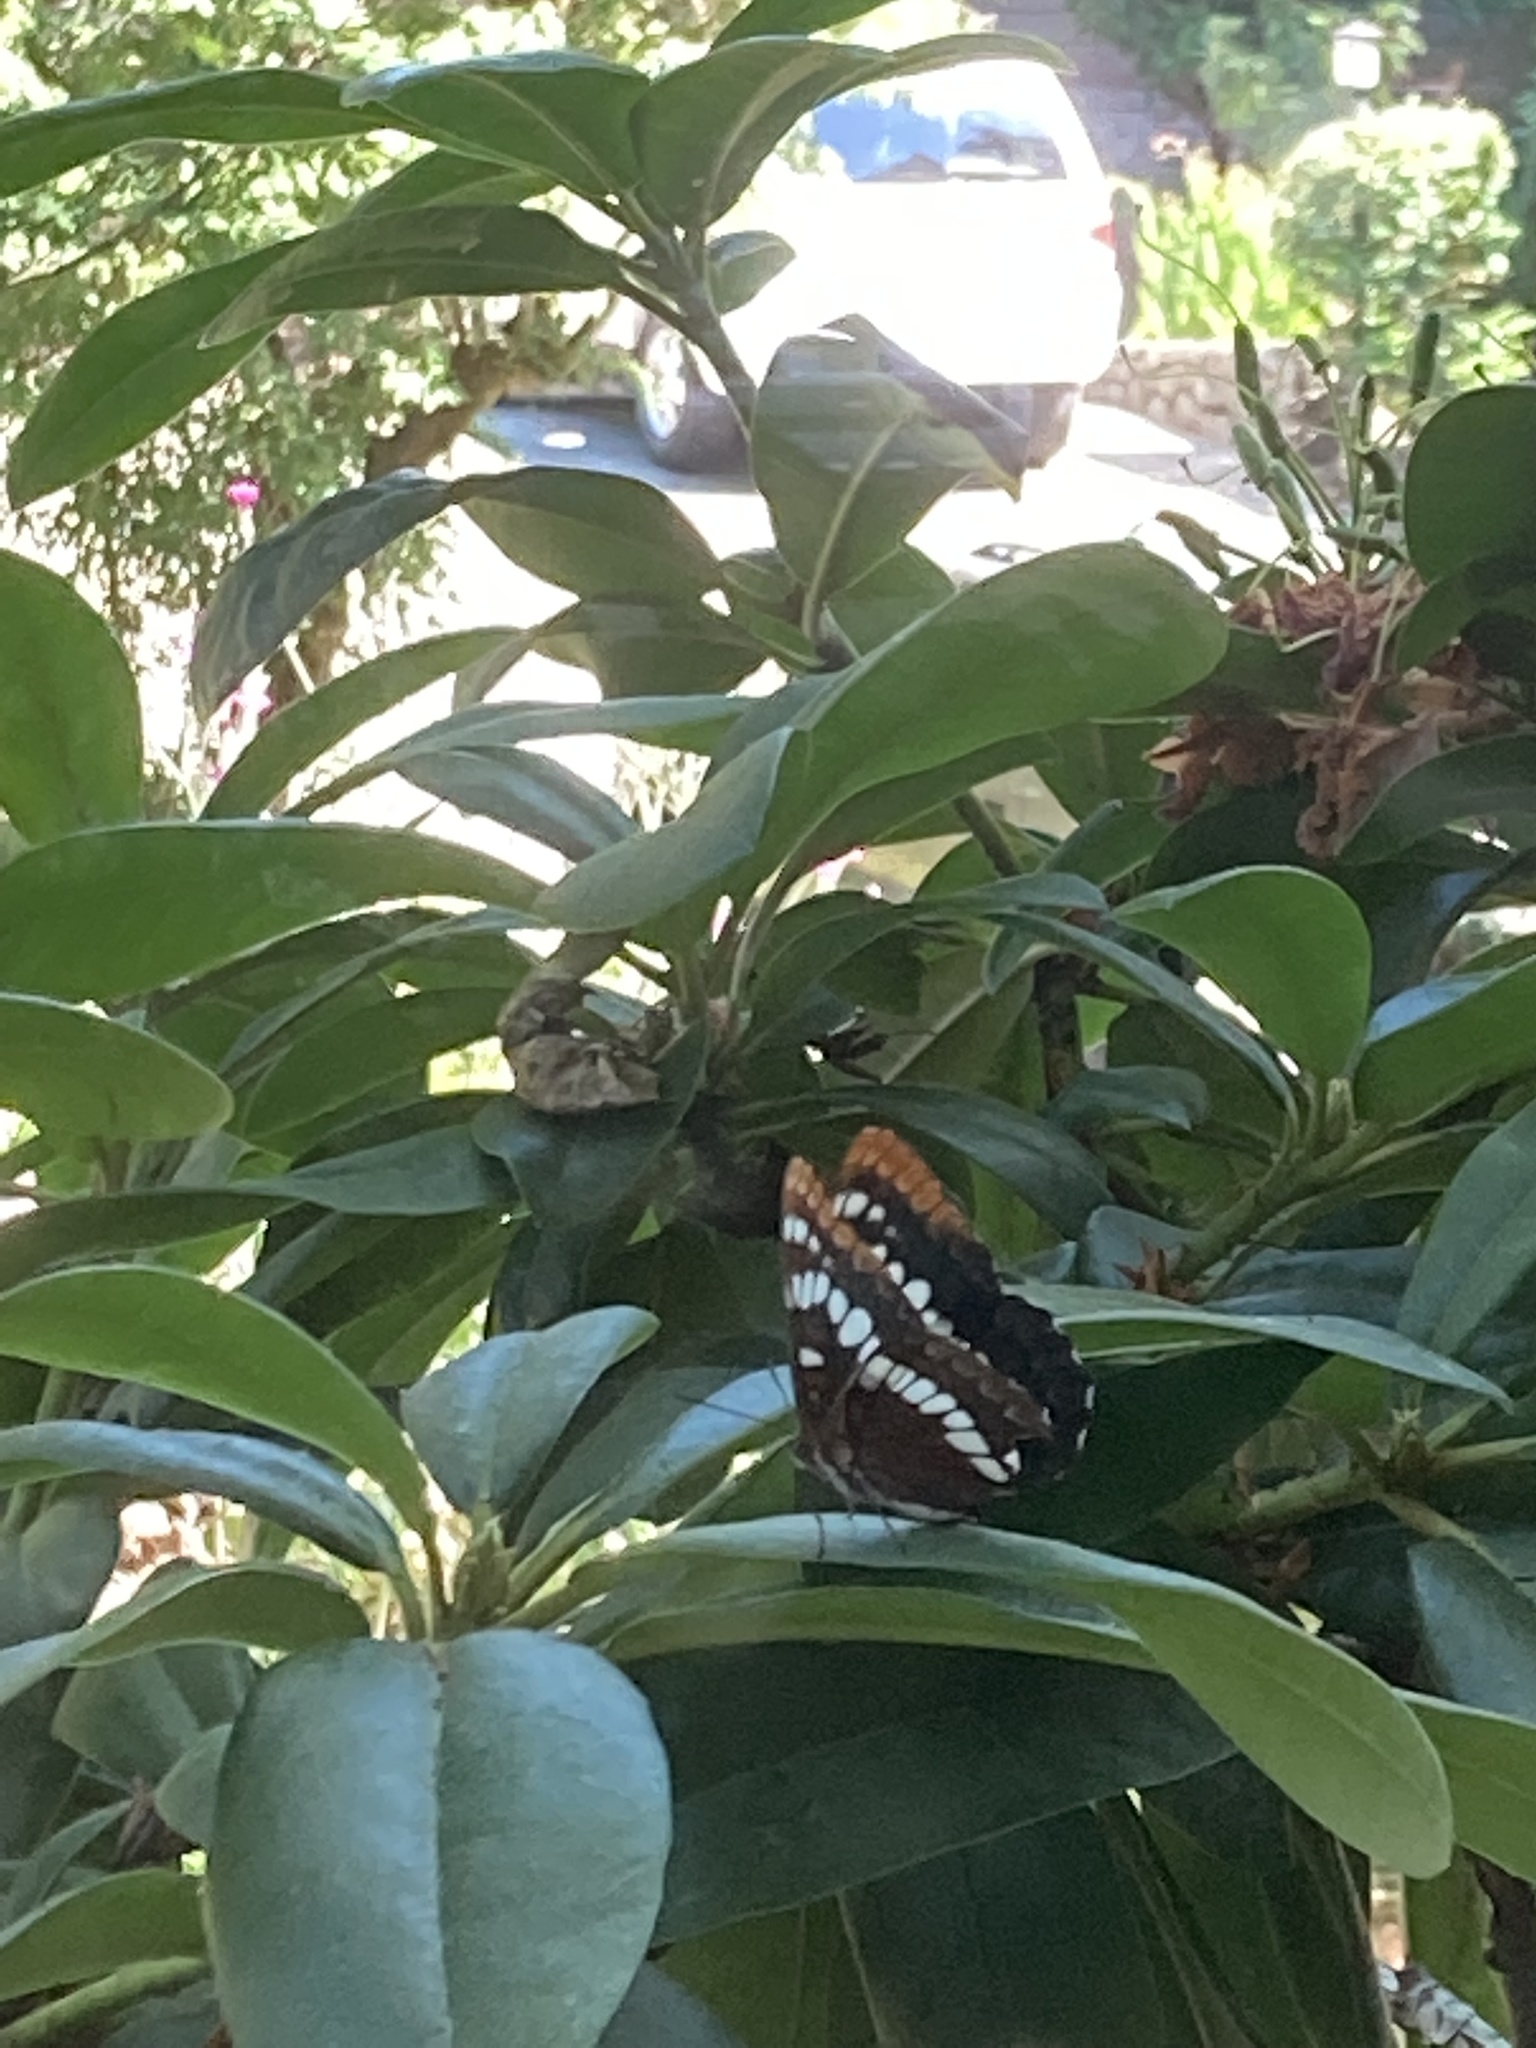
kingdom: Animalia
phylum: Arthropoda
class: Insecta
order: Lepidoptera
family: Nymphalidae
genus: Limenitis
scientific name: Limenitis lorquini
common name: Lorquin's admiral
